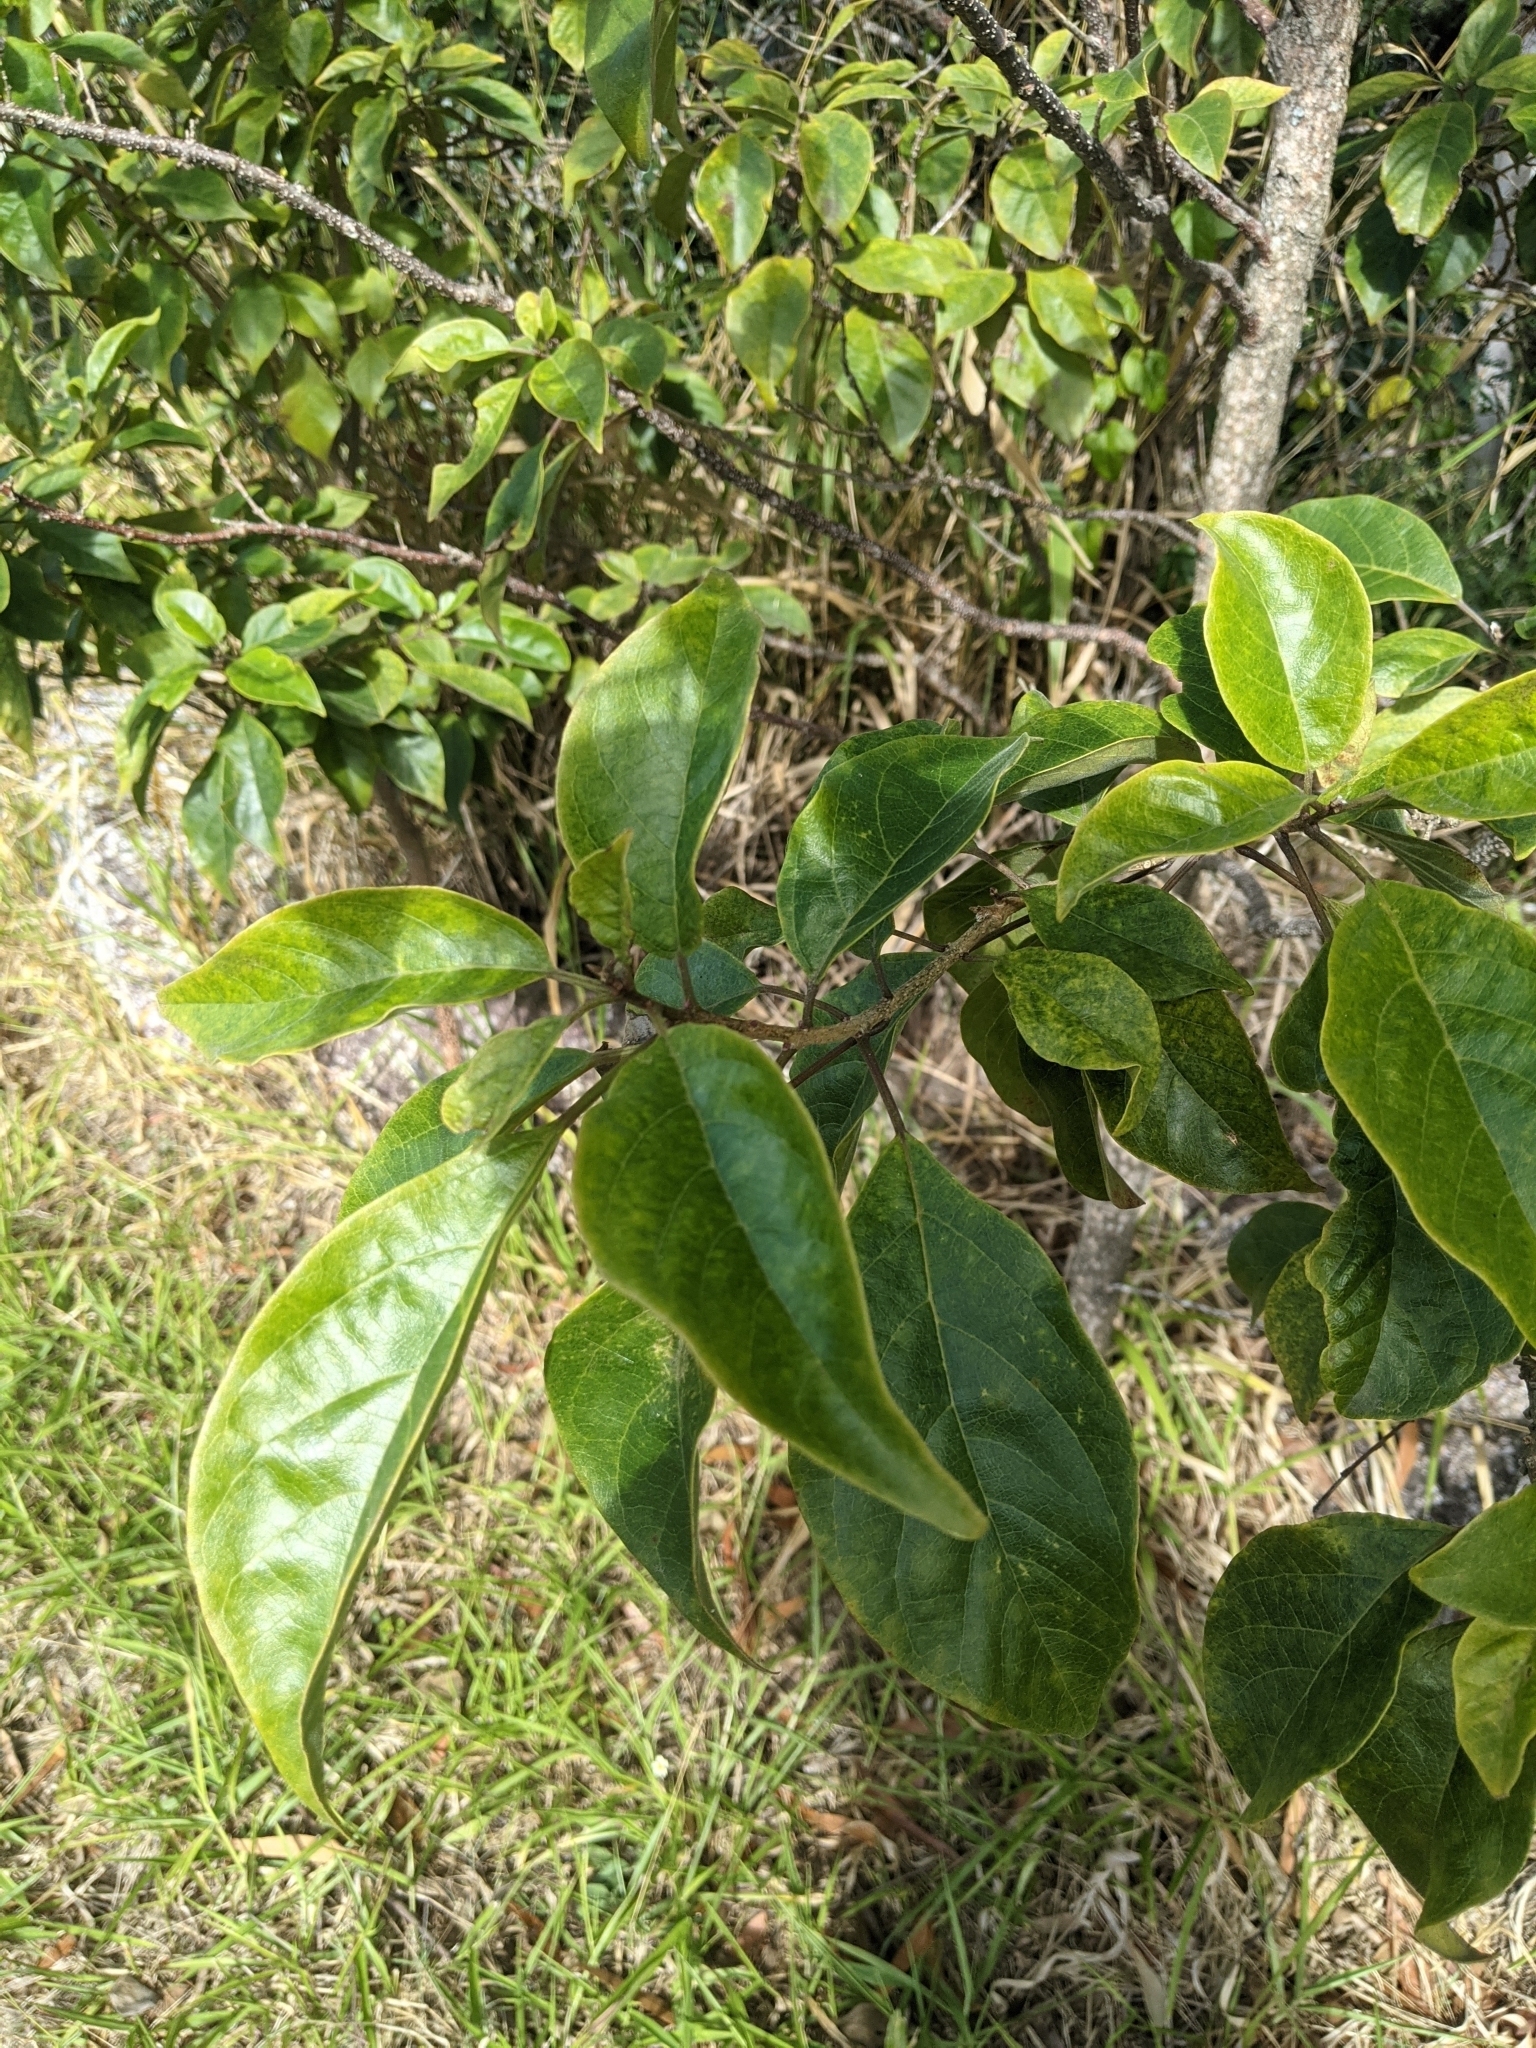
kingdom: Plantae
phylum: Tracheophyta
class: Magnoliopsida
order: Lamiales
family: Lamiaceae
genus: Clerodendrum
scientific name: Clerodendrum tomentosum
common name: Hairy clerodendrum
